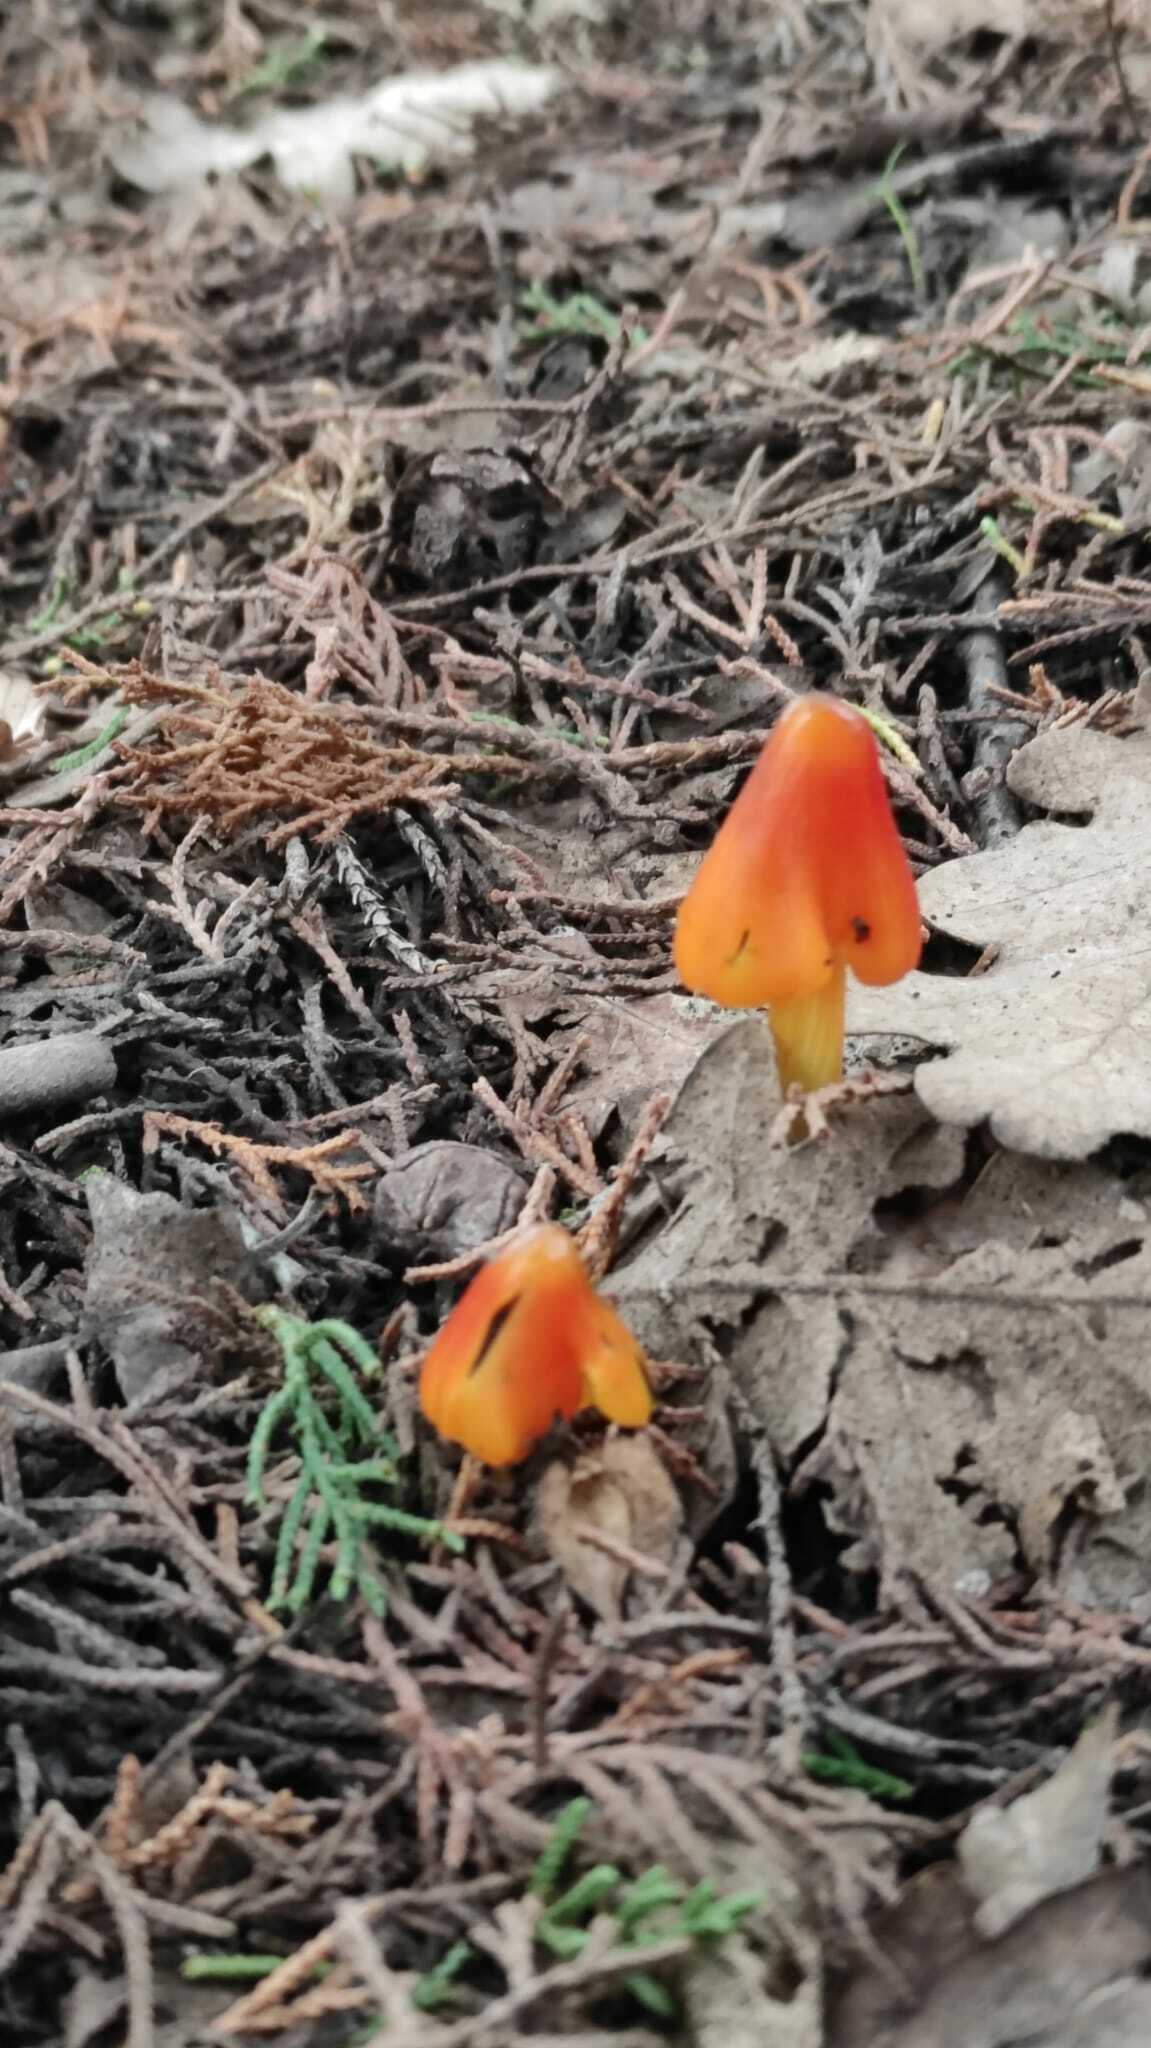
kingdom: Fungi
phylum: Basidiomycota
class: Agaricomycetes
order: Agaricales
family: Hygrophoraceae
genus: Hygrocybe
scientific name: Hygrocybe conica
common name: Blackening wax-cap
